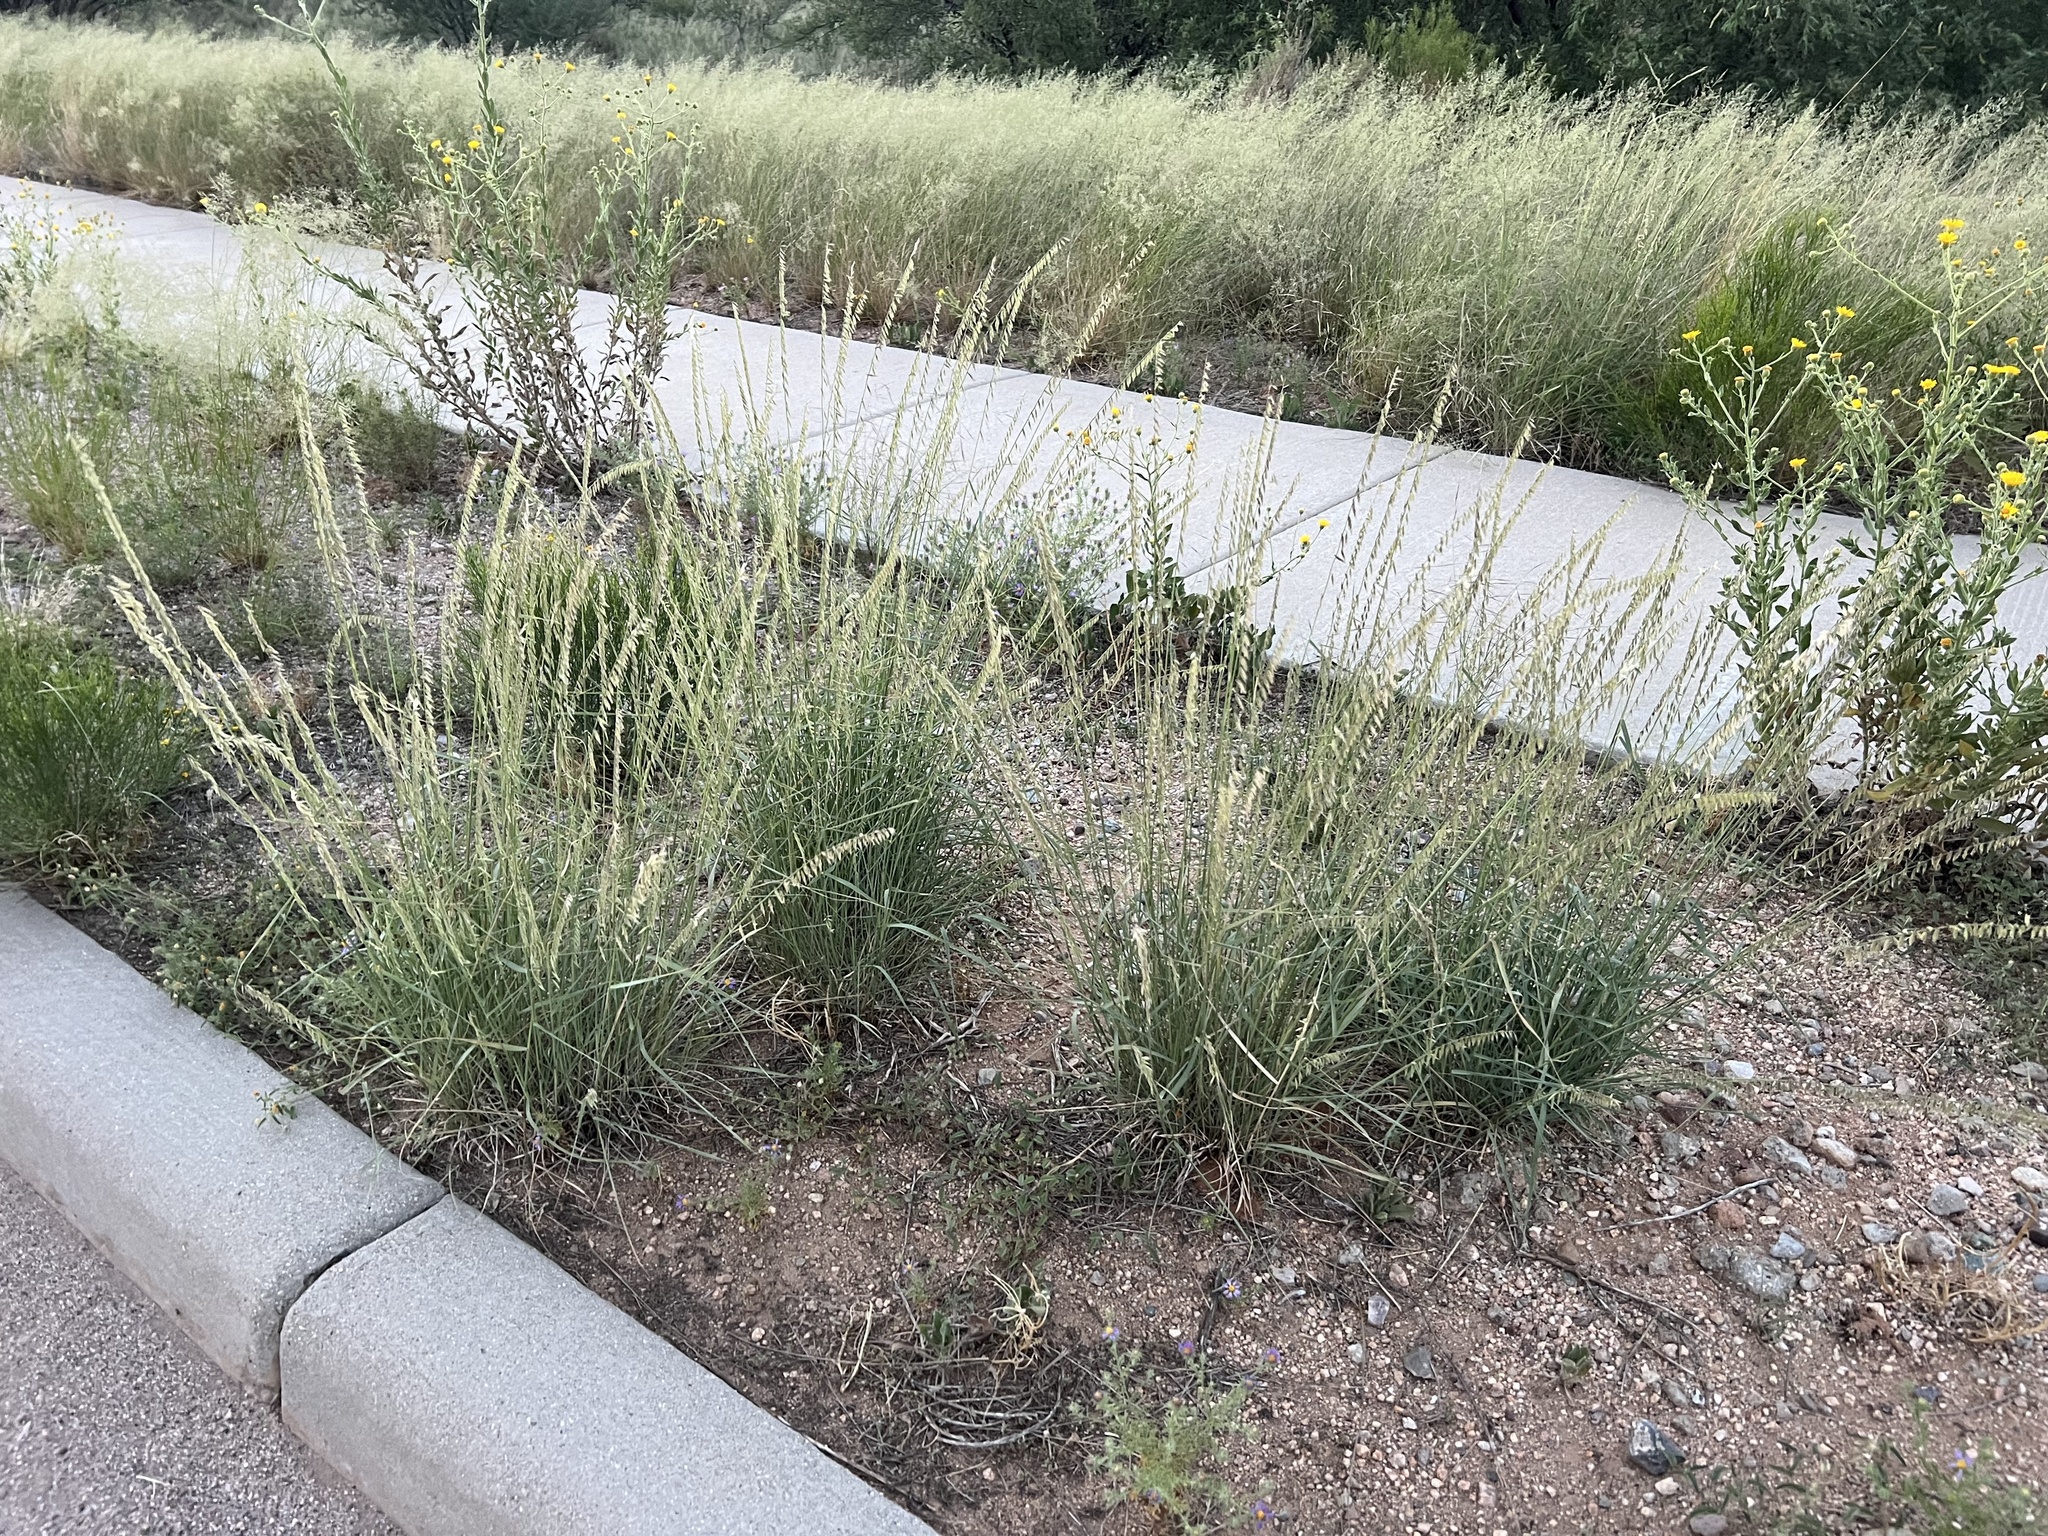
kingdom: Plantae
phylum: Tracheophyta
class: Liliopsida
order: Poales
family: Poaceae
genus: Bouteloua
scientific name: Bouteloua curtipendula
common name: Side-oats grama
